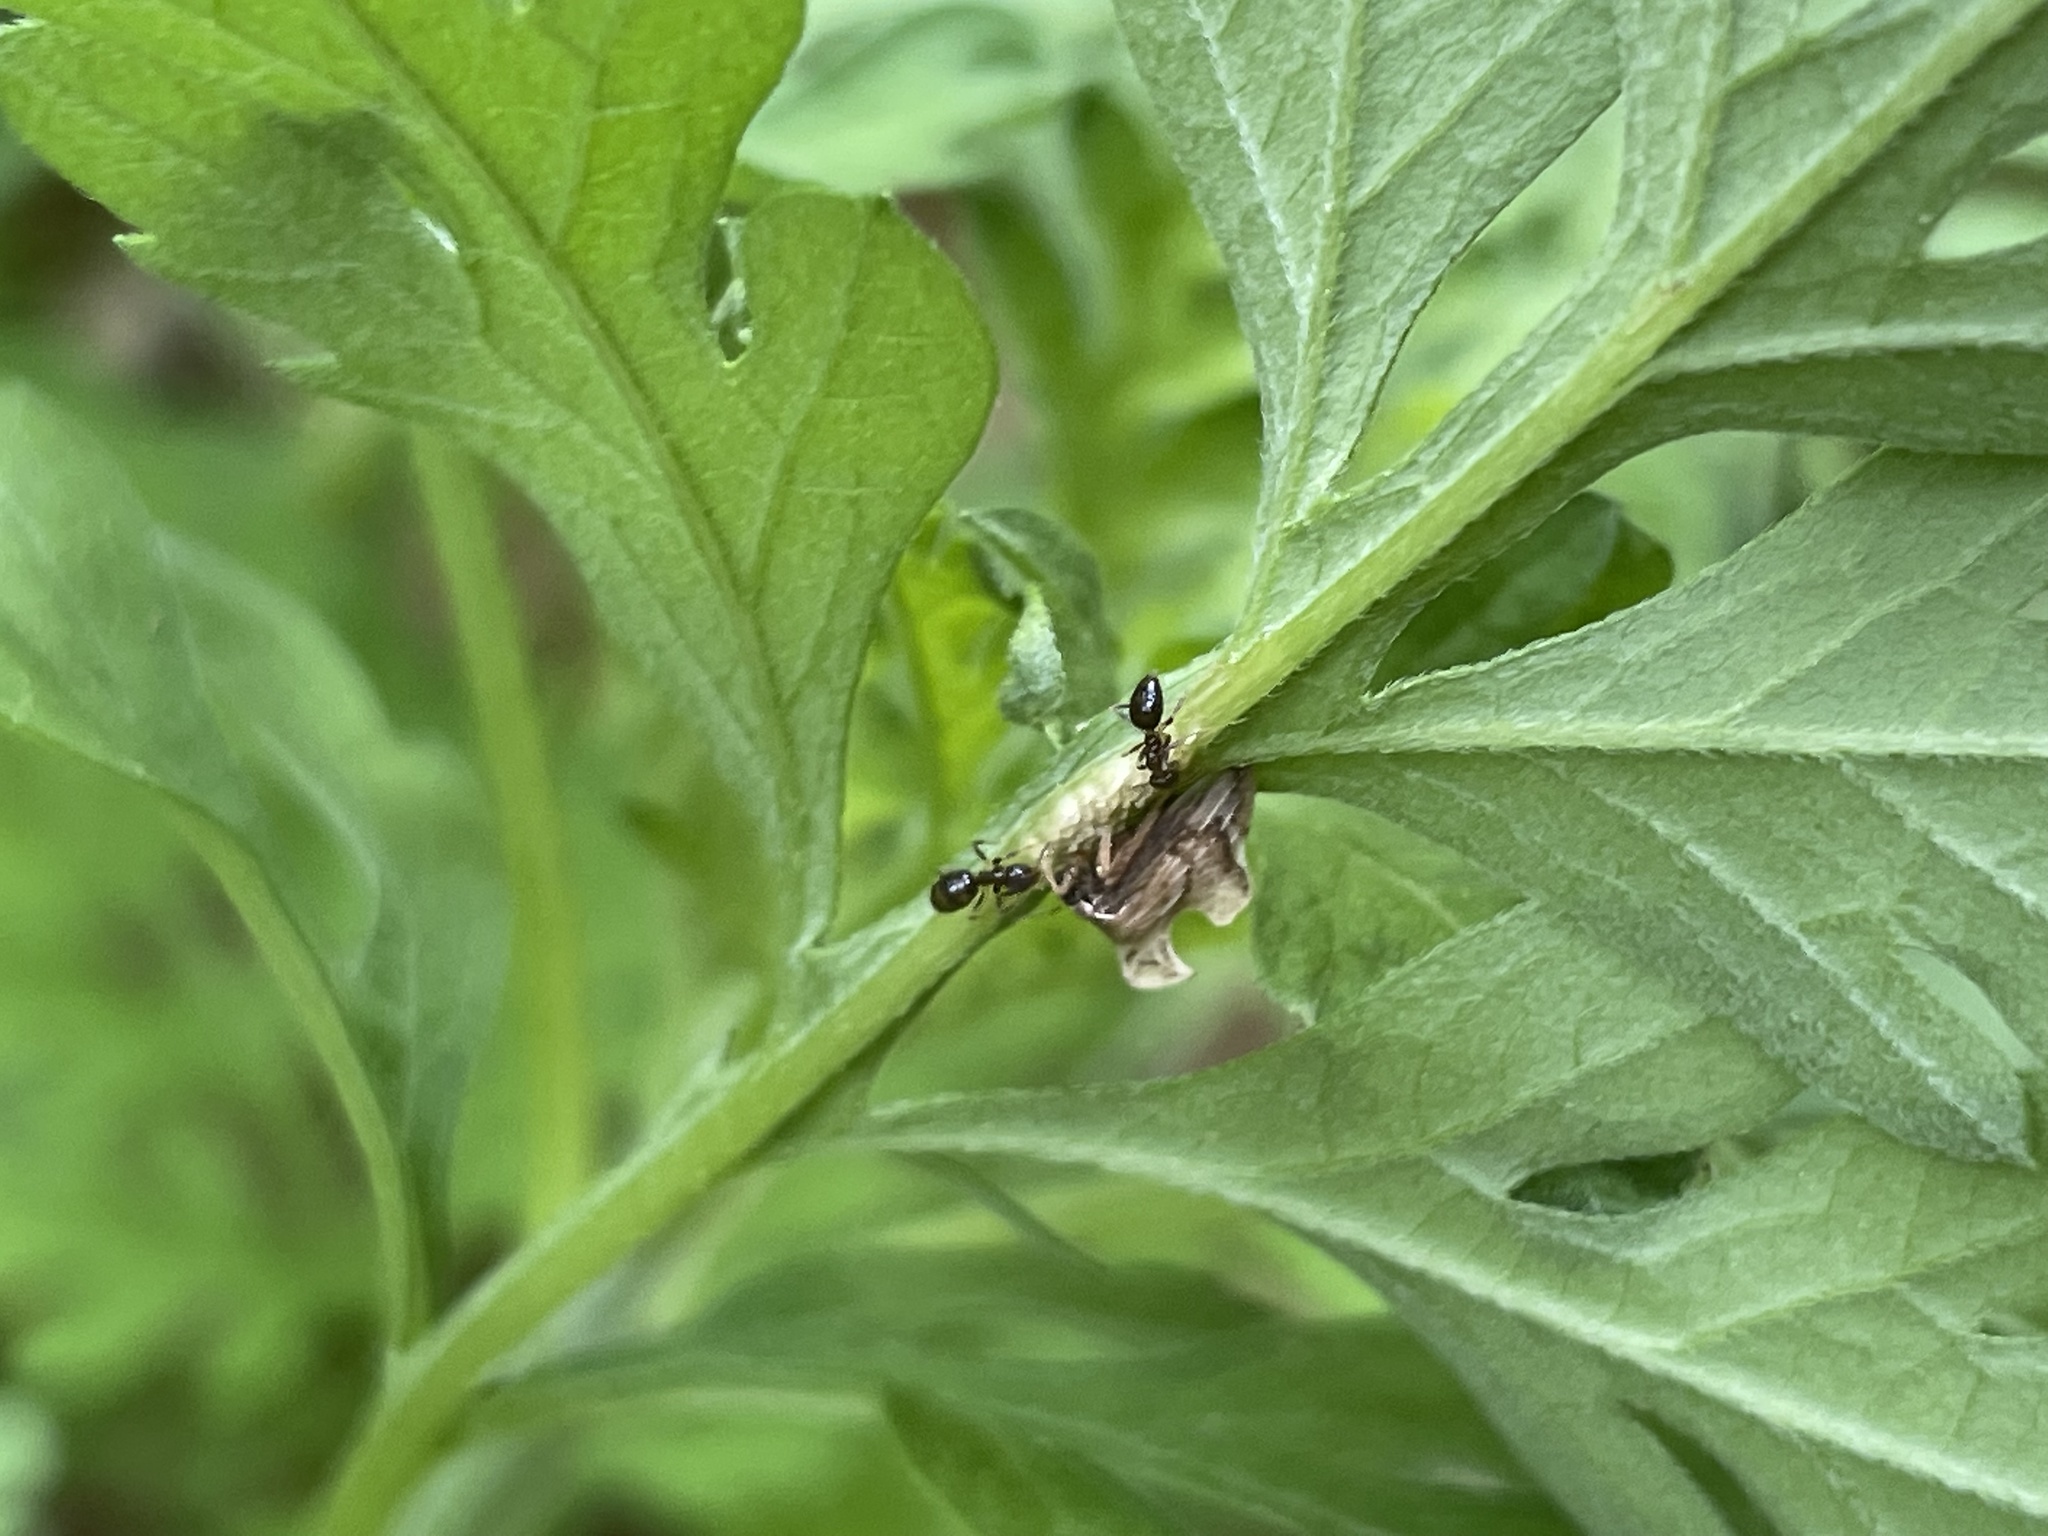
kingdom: Animalia
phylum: Arthropoda
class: Insecta
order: Hemiptera
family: Membracidae
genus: Entylia
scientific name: Entylia carinata
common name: Keeled treehopper
